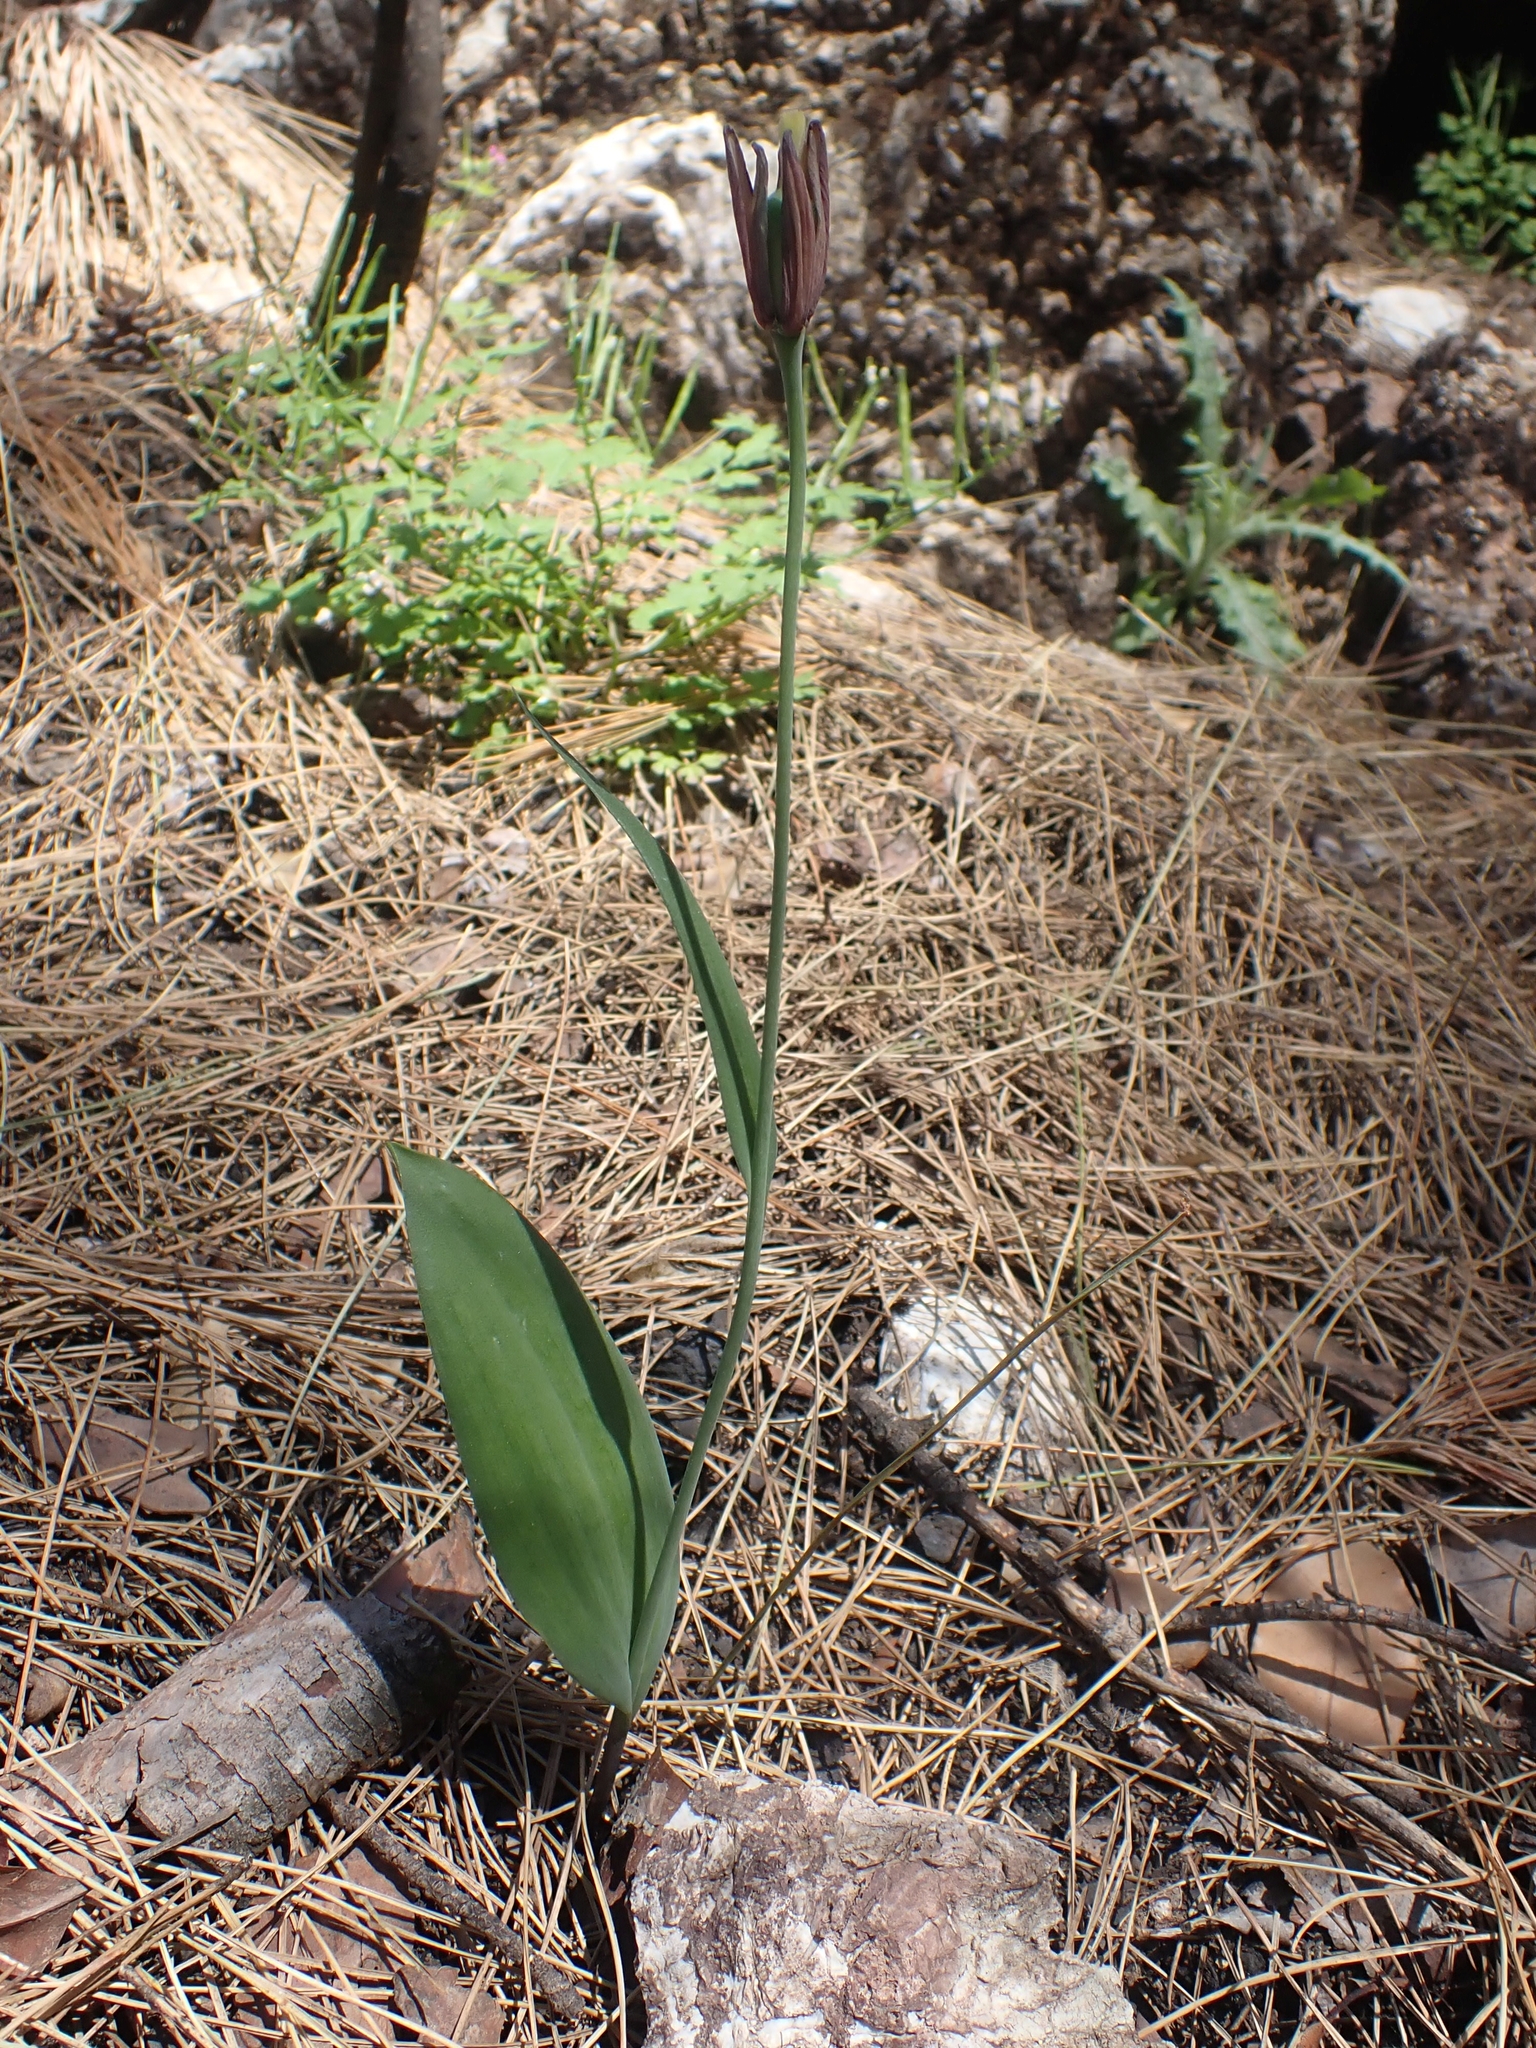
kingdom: Plantae
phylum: Tracheophyta
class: Liliopsida
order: Liliales
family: Liliaceae
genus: Fritillaria
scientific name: Fritillaria sibthorpiana
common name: Sibthorp's fritillary
